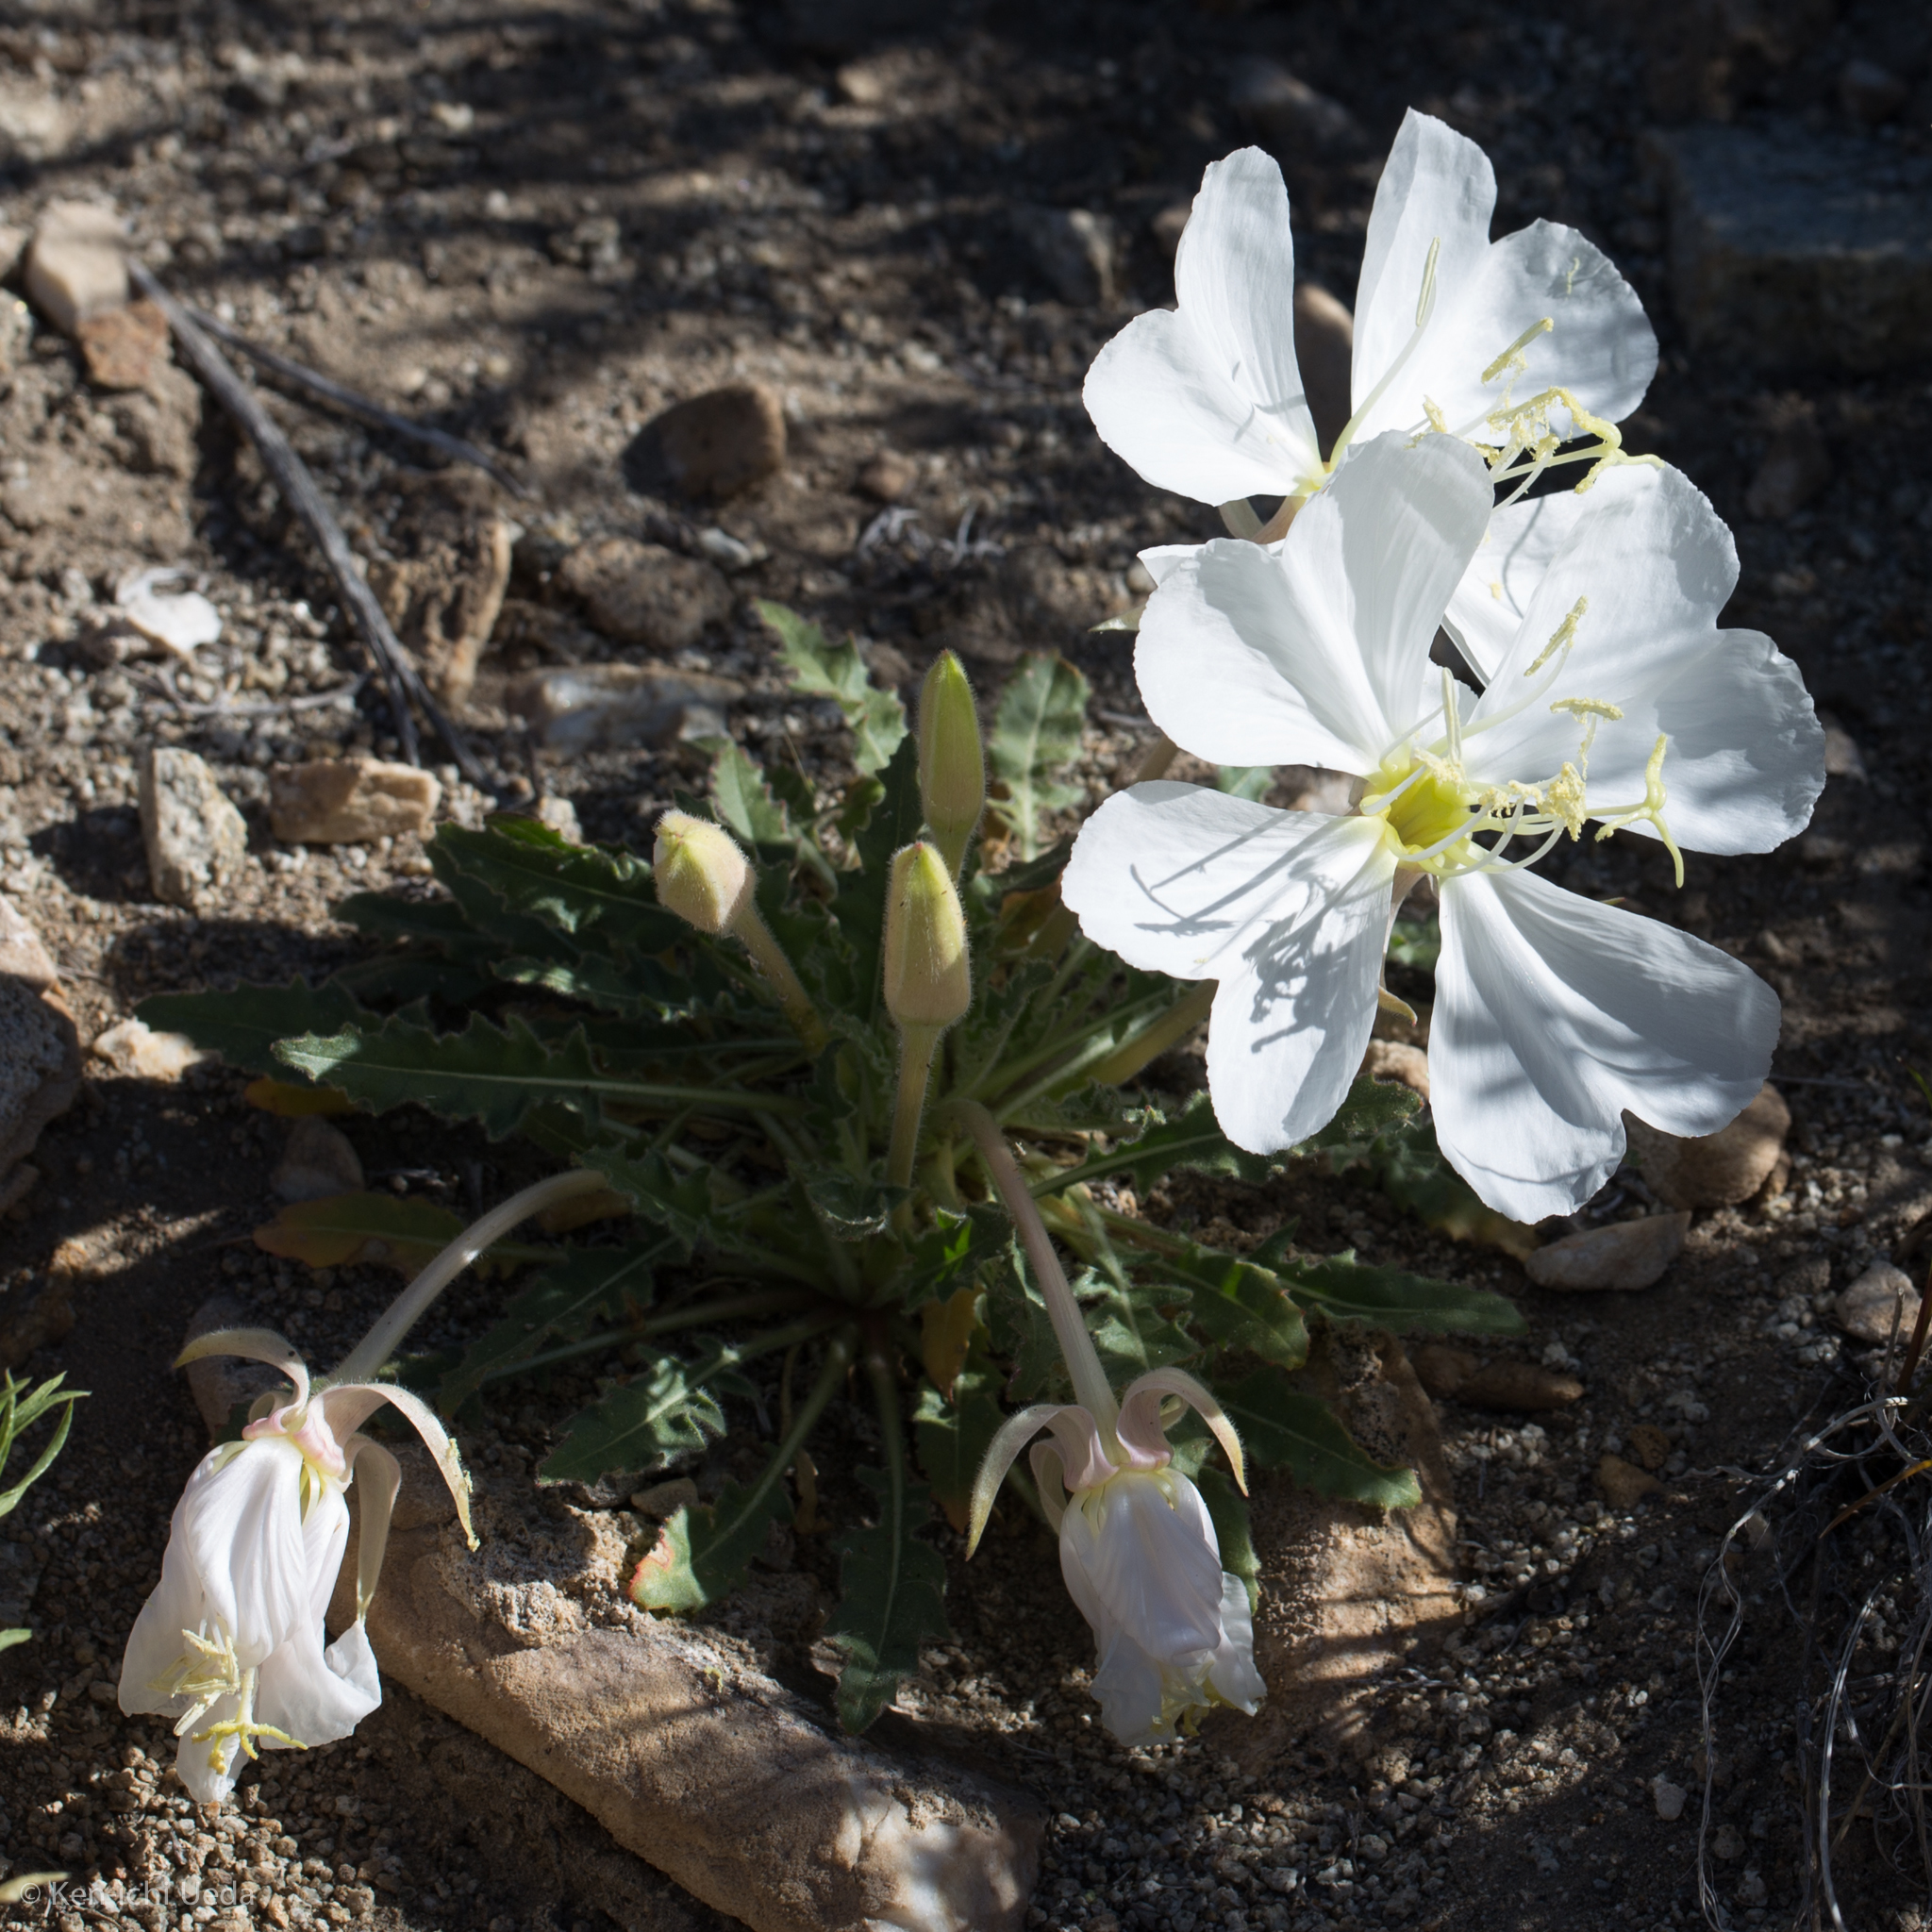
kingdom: Plantae
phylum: Tracheophyta
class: Magnoliopsida
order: Myrtales
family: Onagraceae
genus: Oenothera
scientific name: Oenothera cespitosa
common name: Tufted evening-primrose
